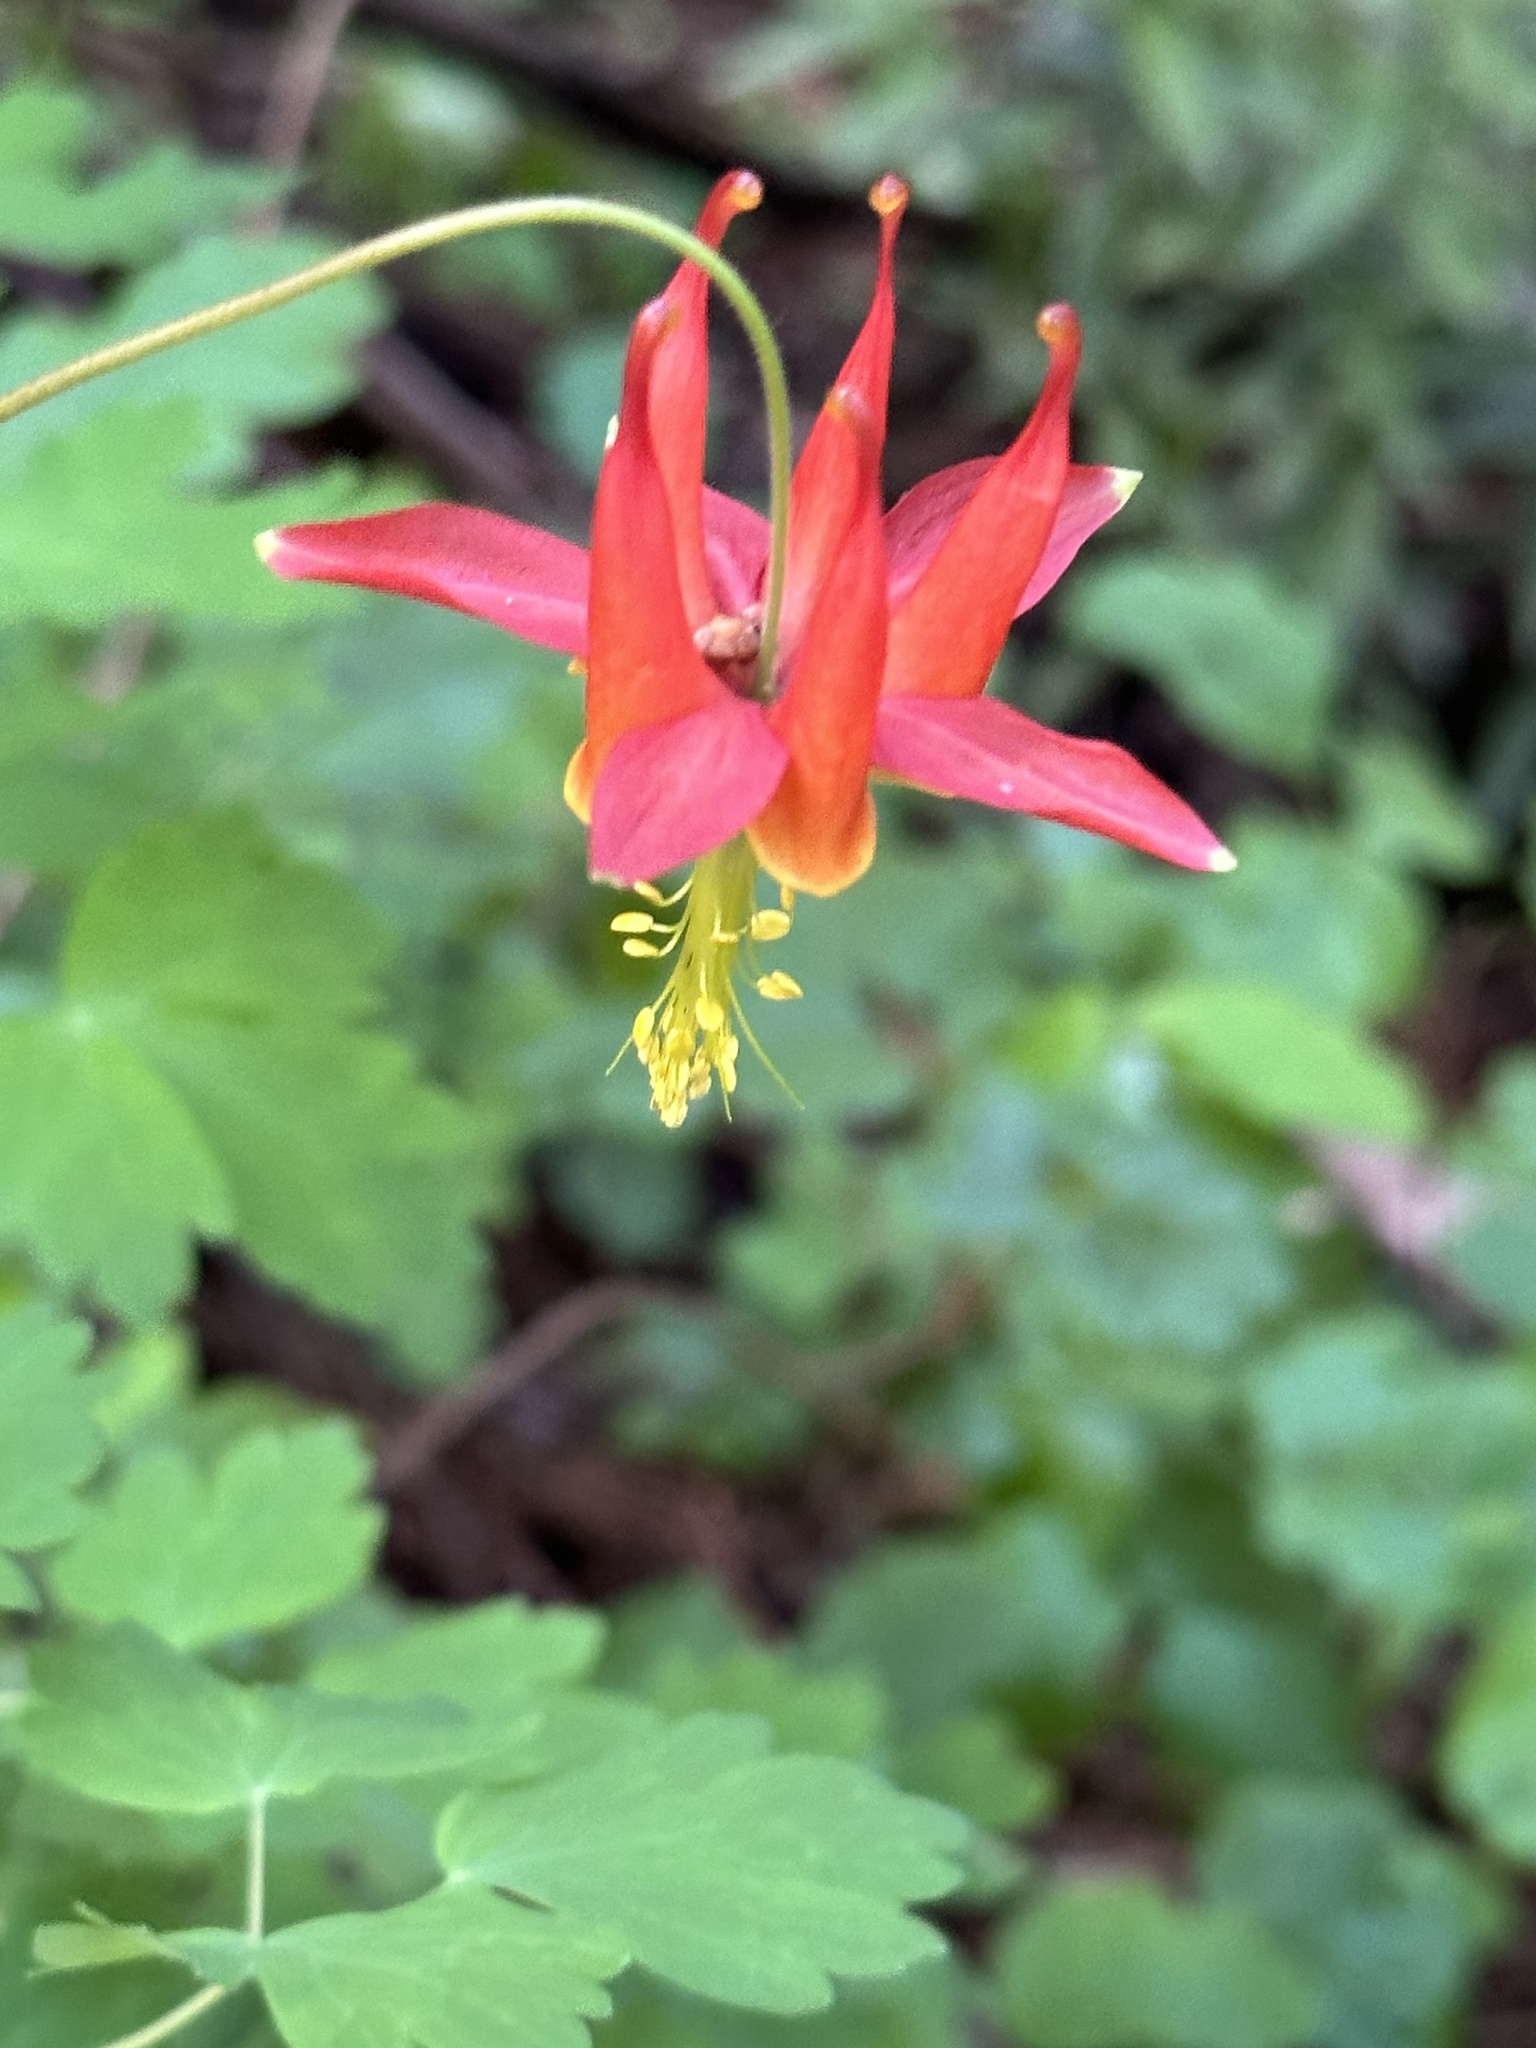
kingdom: Plantae
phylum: Tracheophyta
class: Magnoliopsida
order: Ranunculales
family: Ranunculaceae
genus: Aquilegia
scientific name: Aquilegia formosa
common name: Sitka columbine
